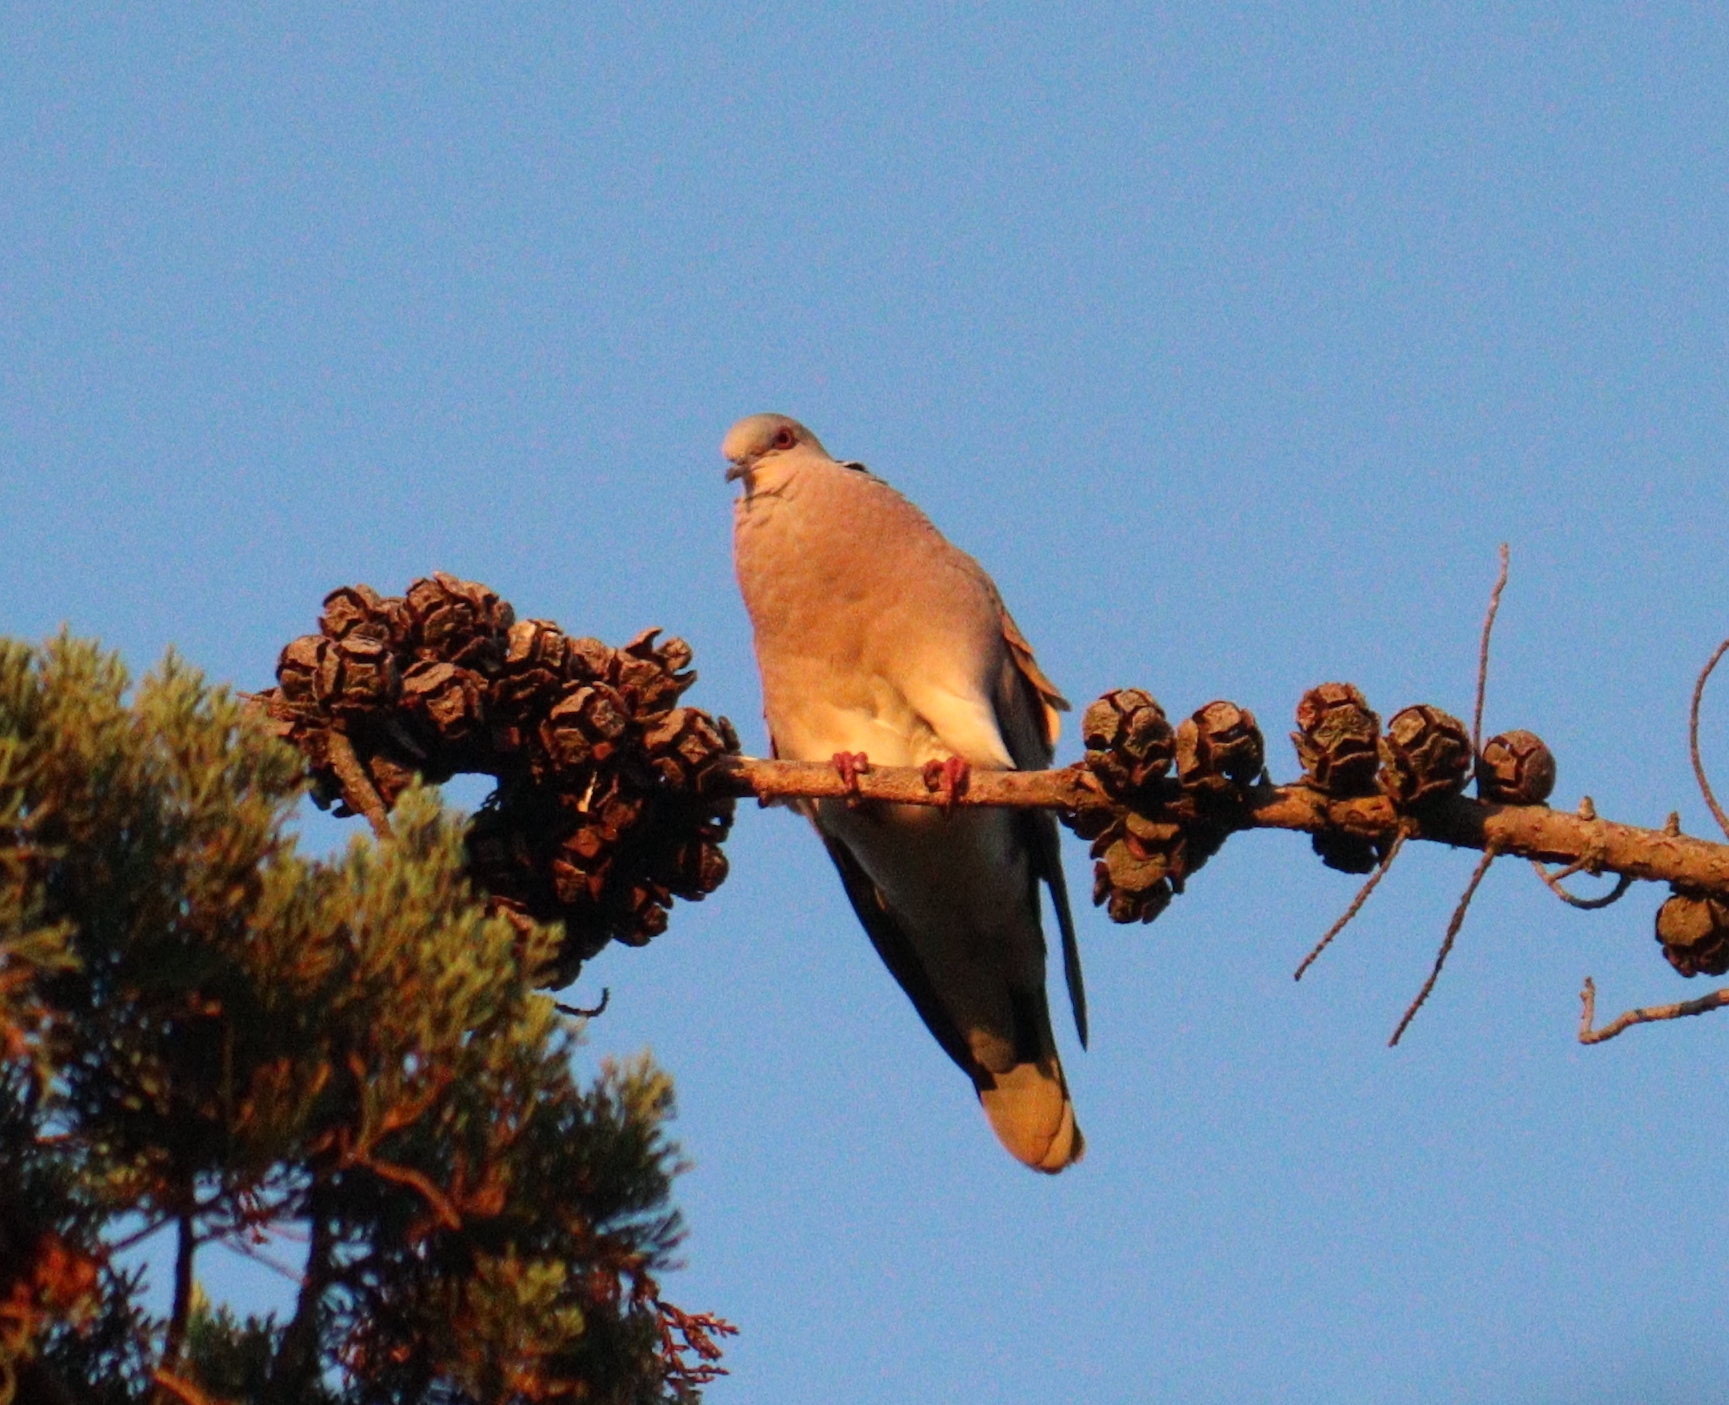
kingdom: Animalia
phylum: Chordata
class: Aves
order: Columbiformes
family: Columbidae
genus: Streptopelia
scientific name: Streptopelia turtur
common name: European turtle dove
